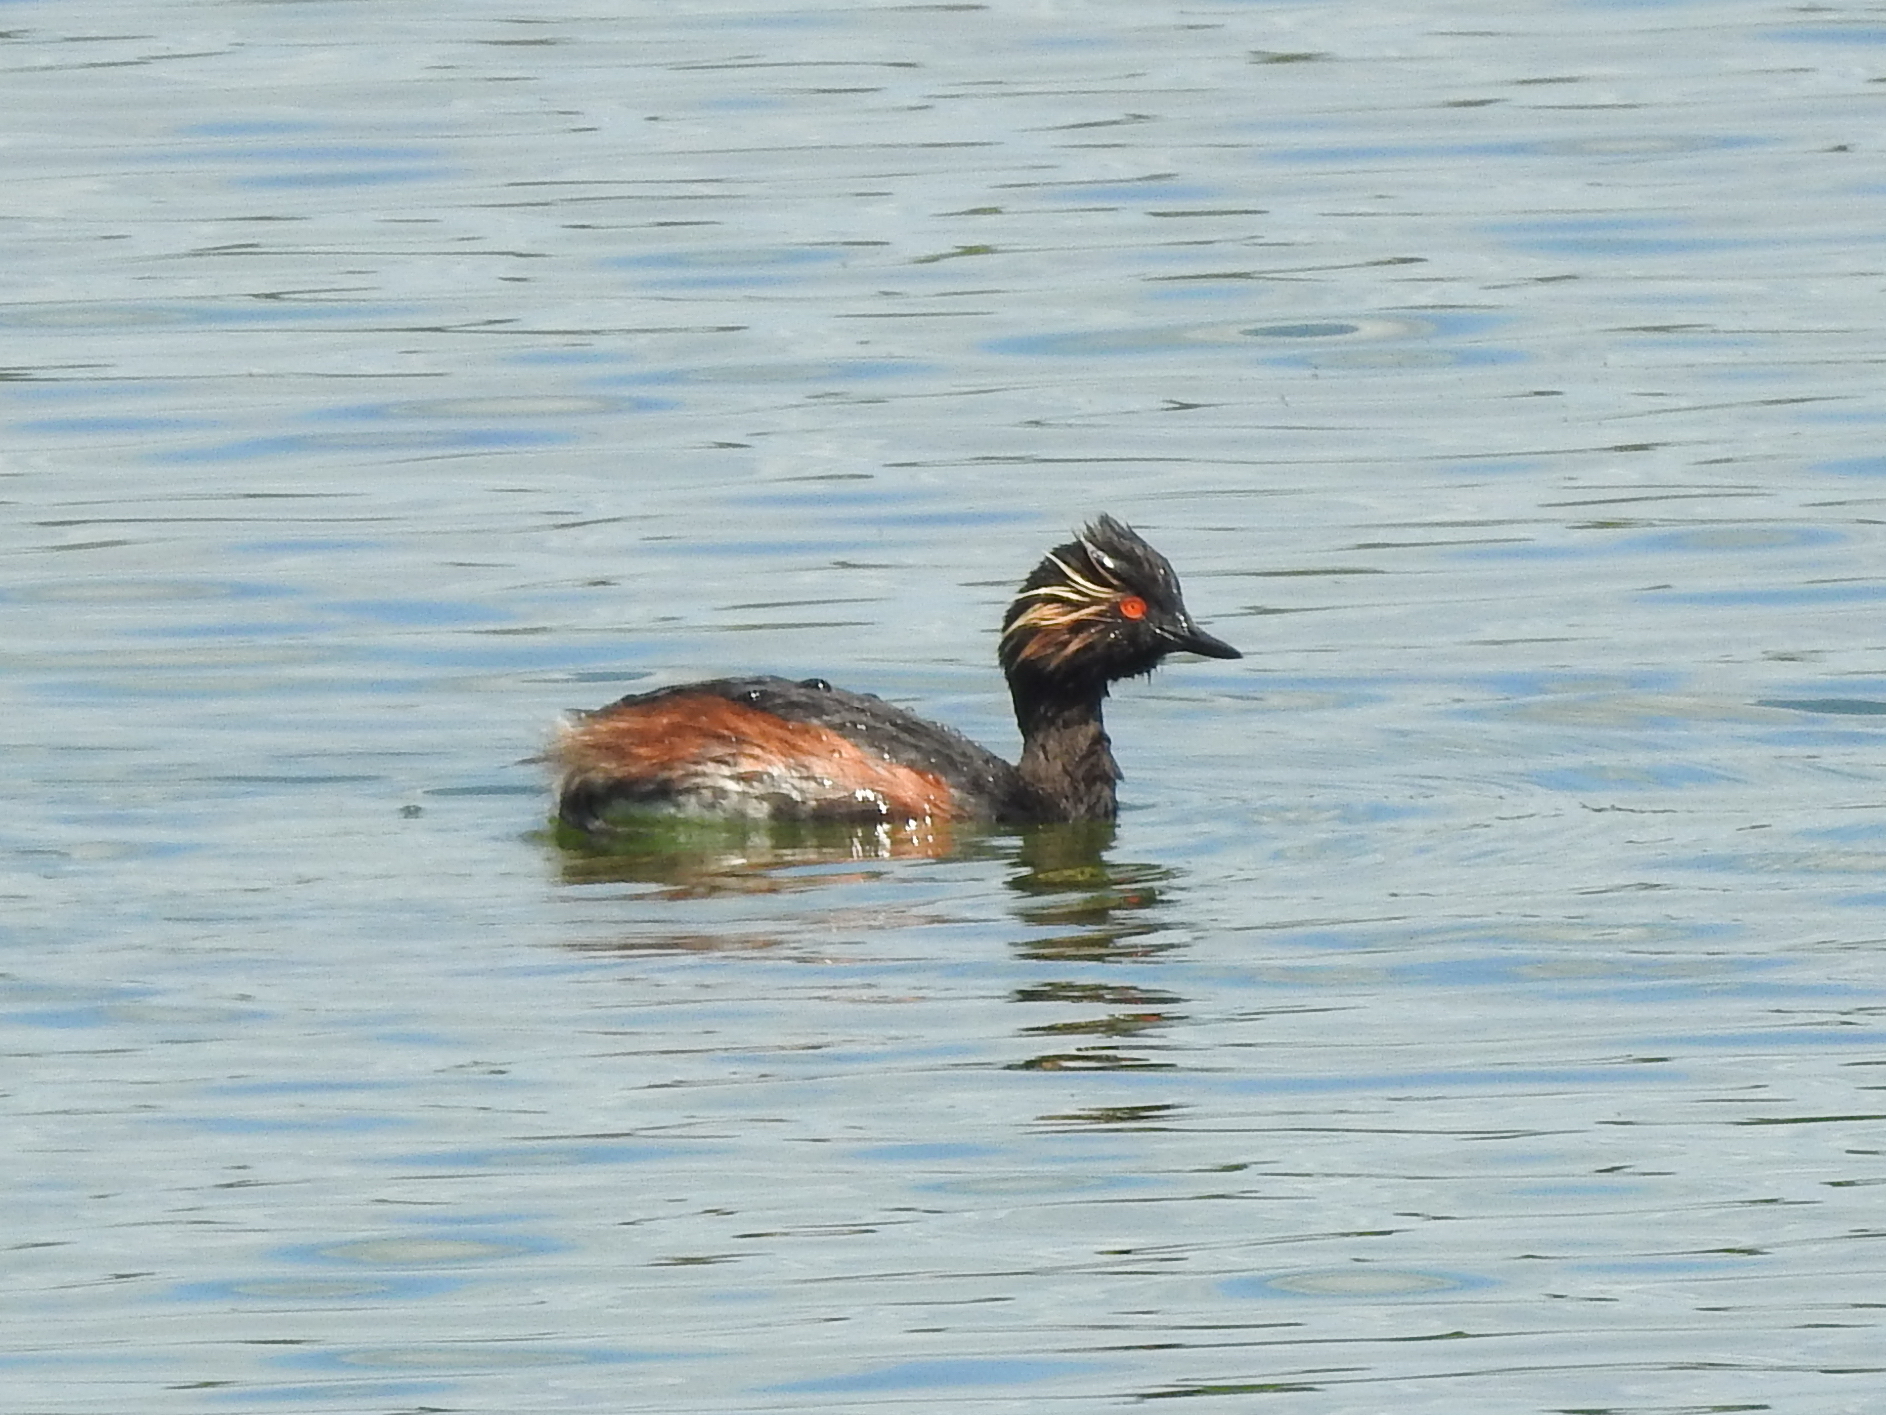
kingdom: Animalia
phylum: Chordata
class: Aves
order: Podicipediformes
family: Podicipedidae
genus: Podiceps
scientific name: Podiceps nigricollis
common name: Black-necked grebe
